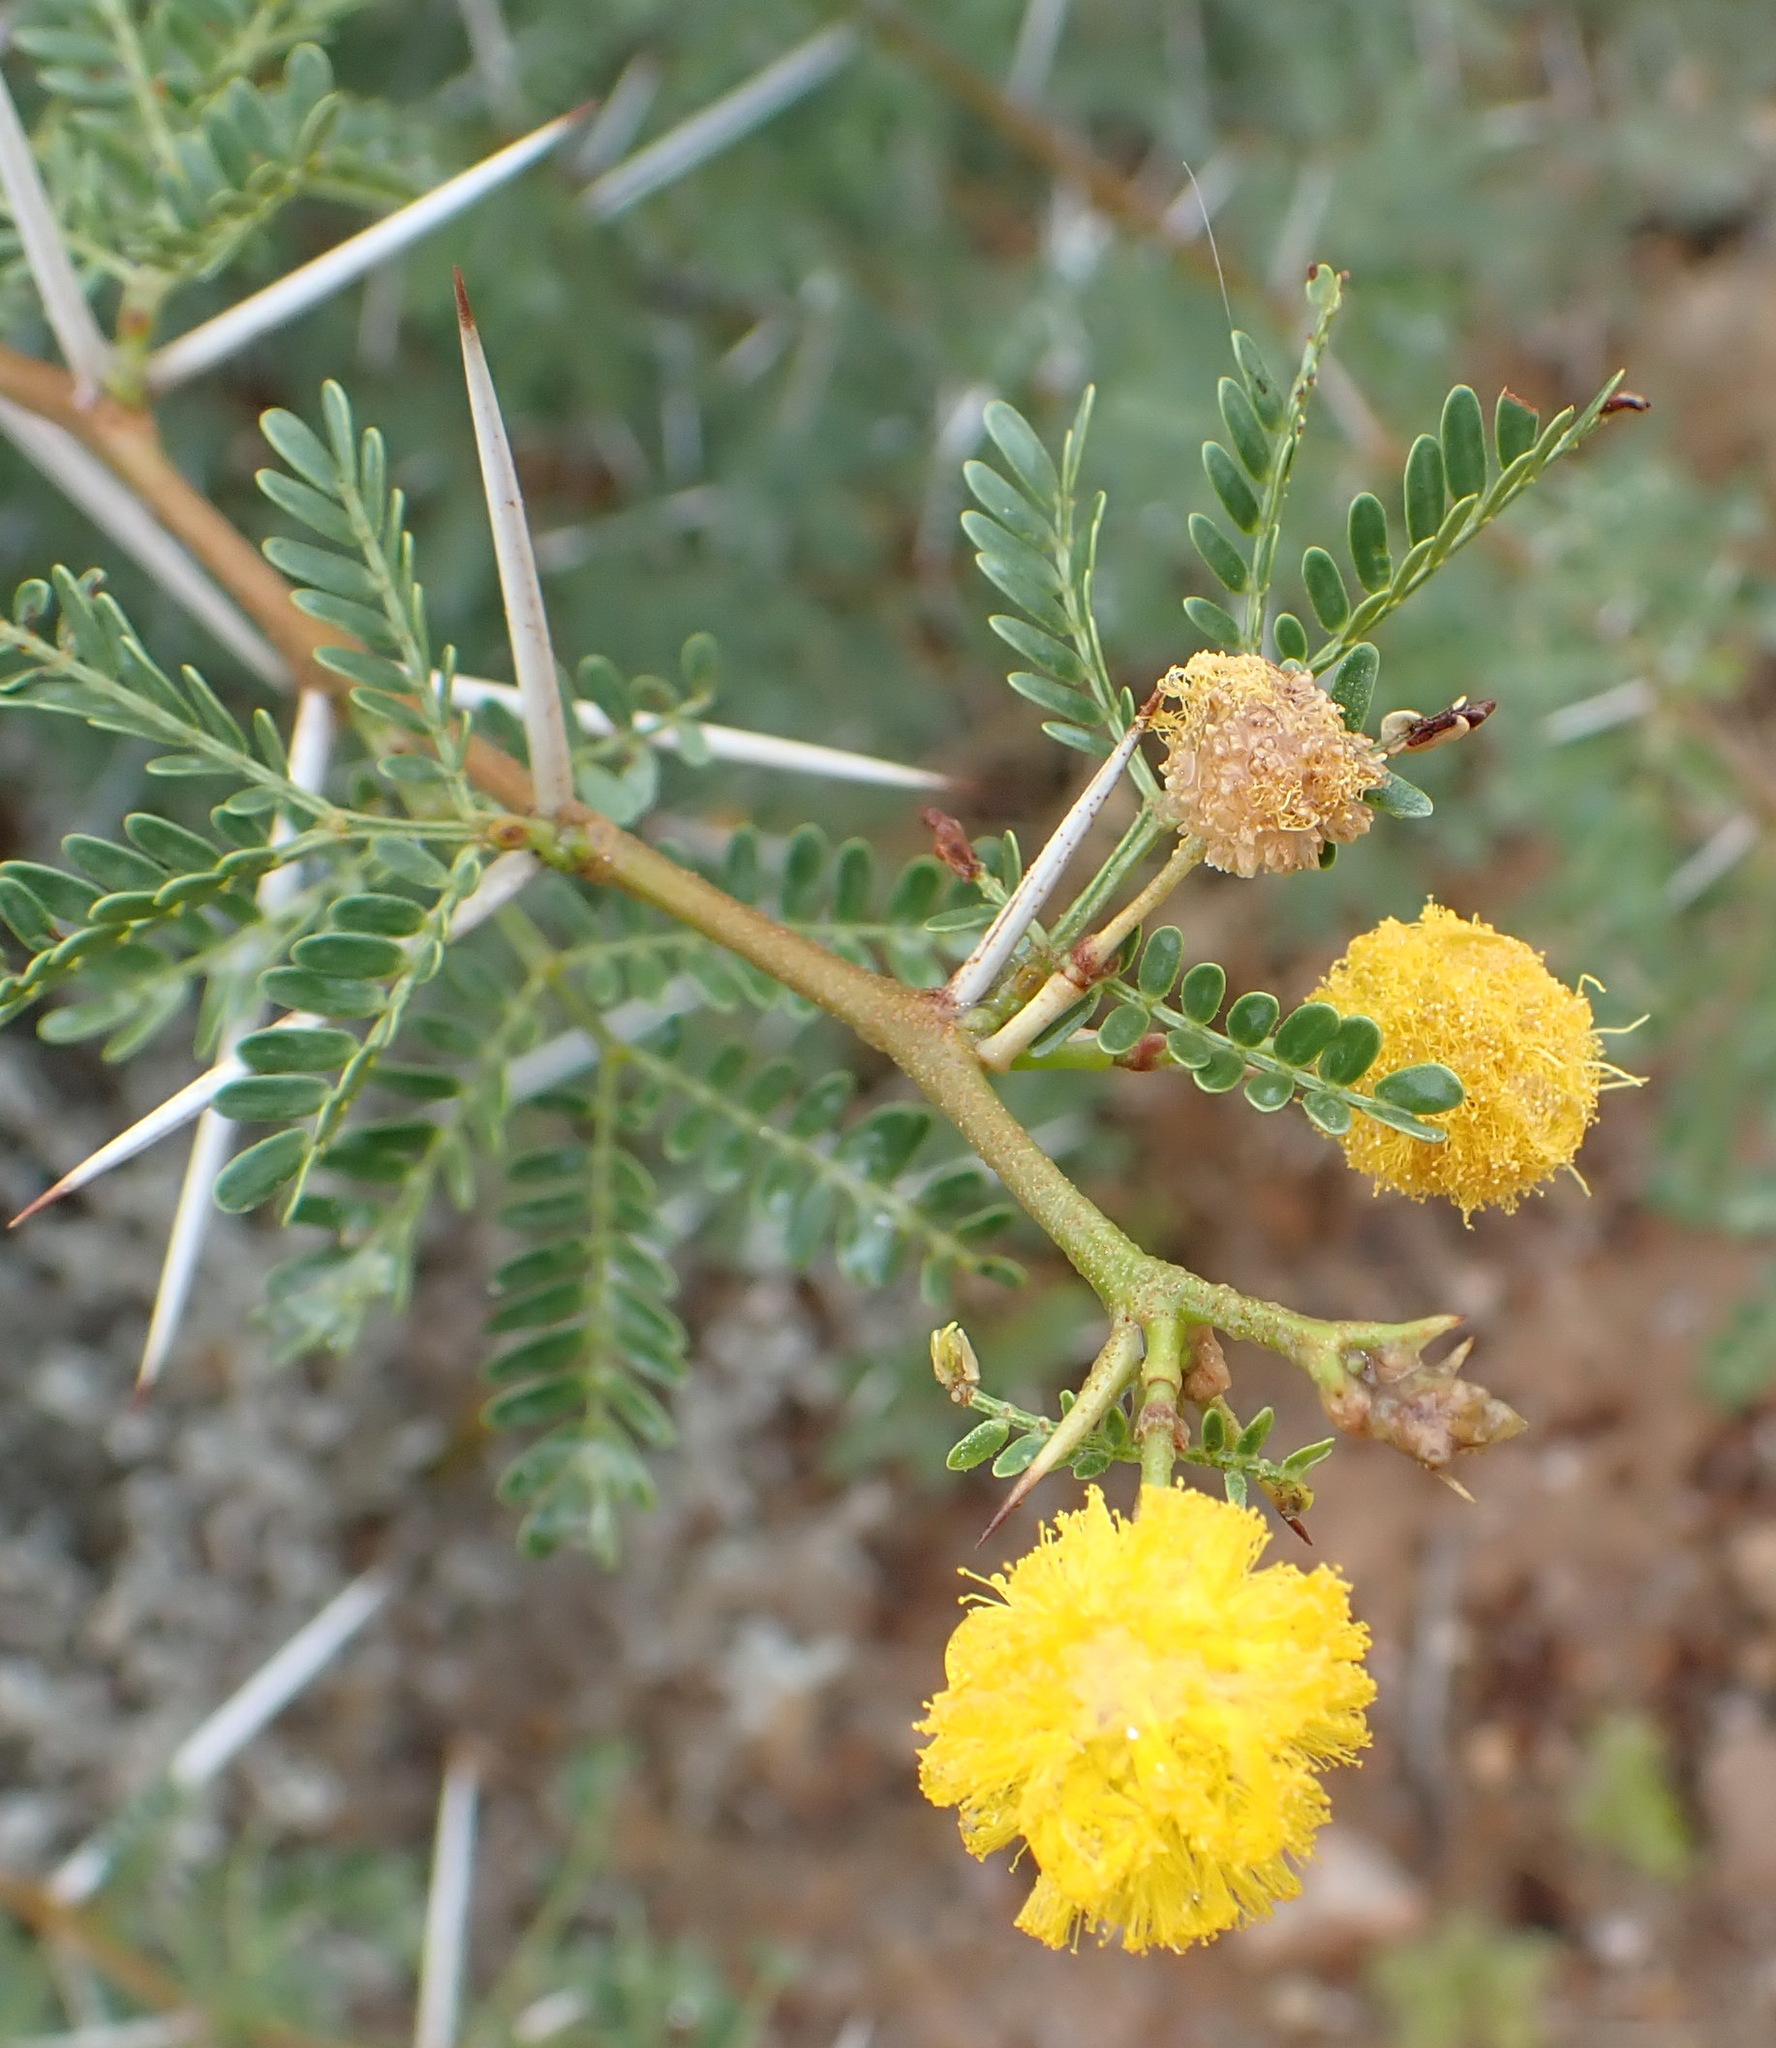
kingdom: Plantae
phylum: Tracheophyta
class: Magnoliopsida
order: Fabales
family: Fabaceae
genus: Vachellia
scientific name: Vachellia karroo
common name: Sweet thorn
